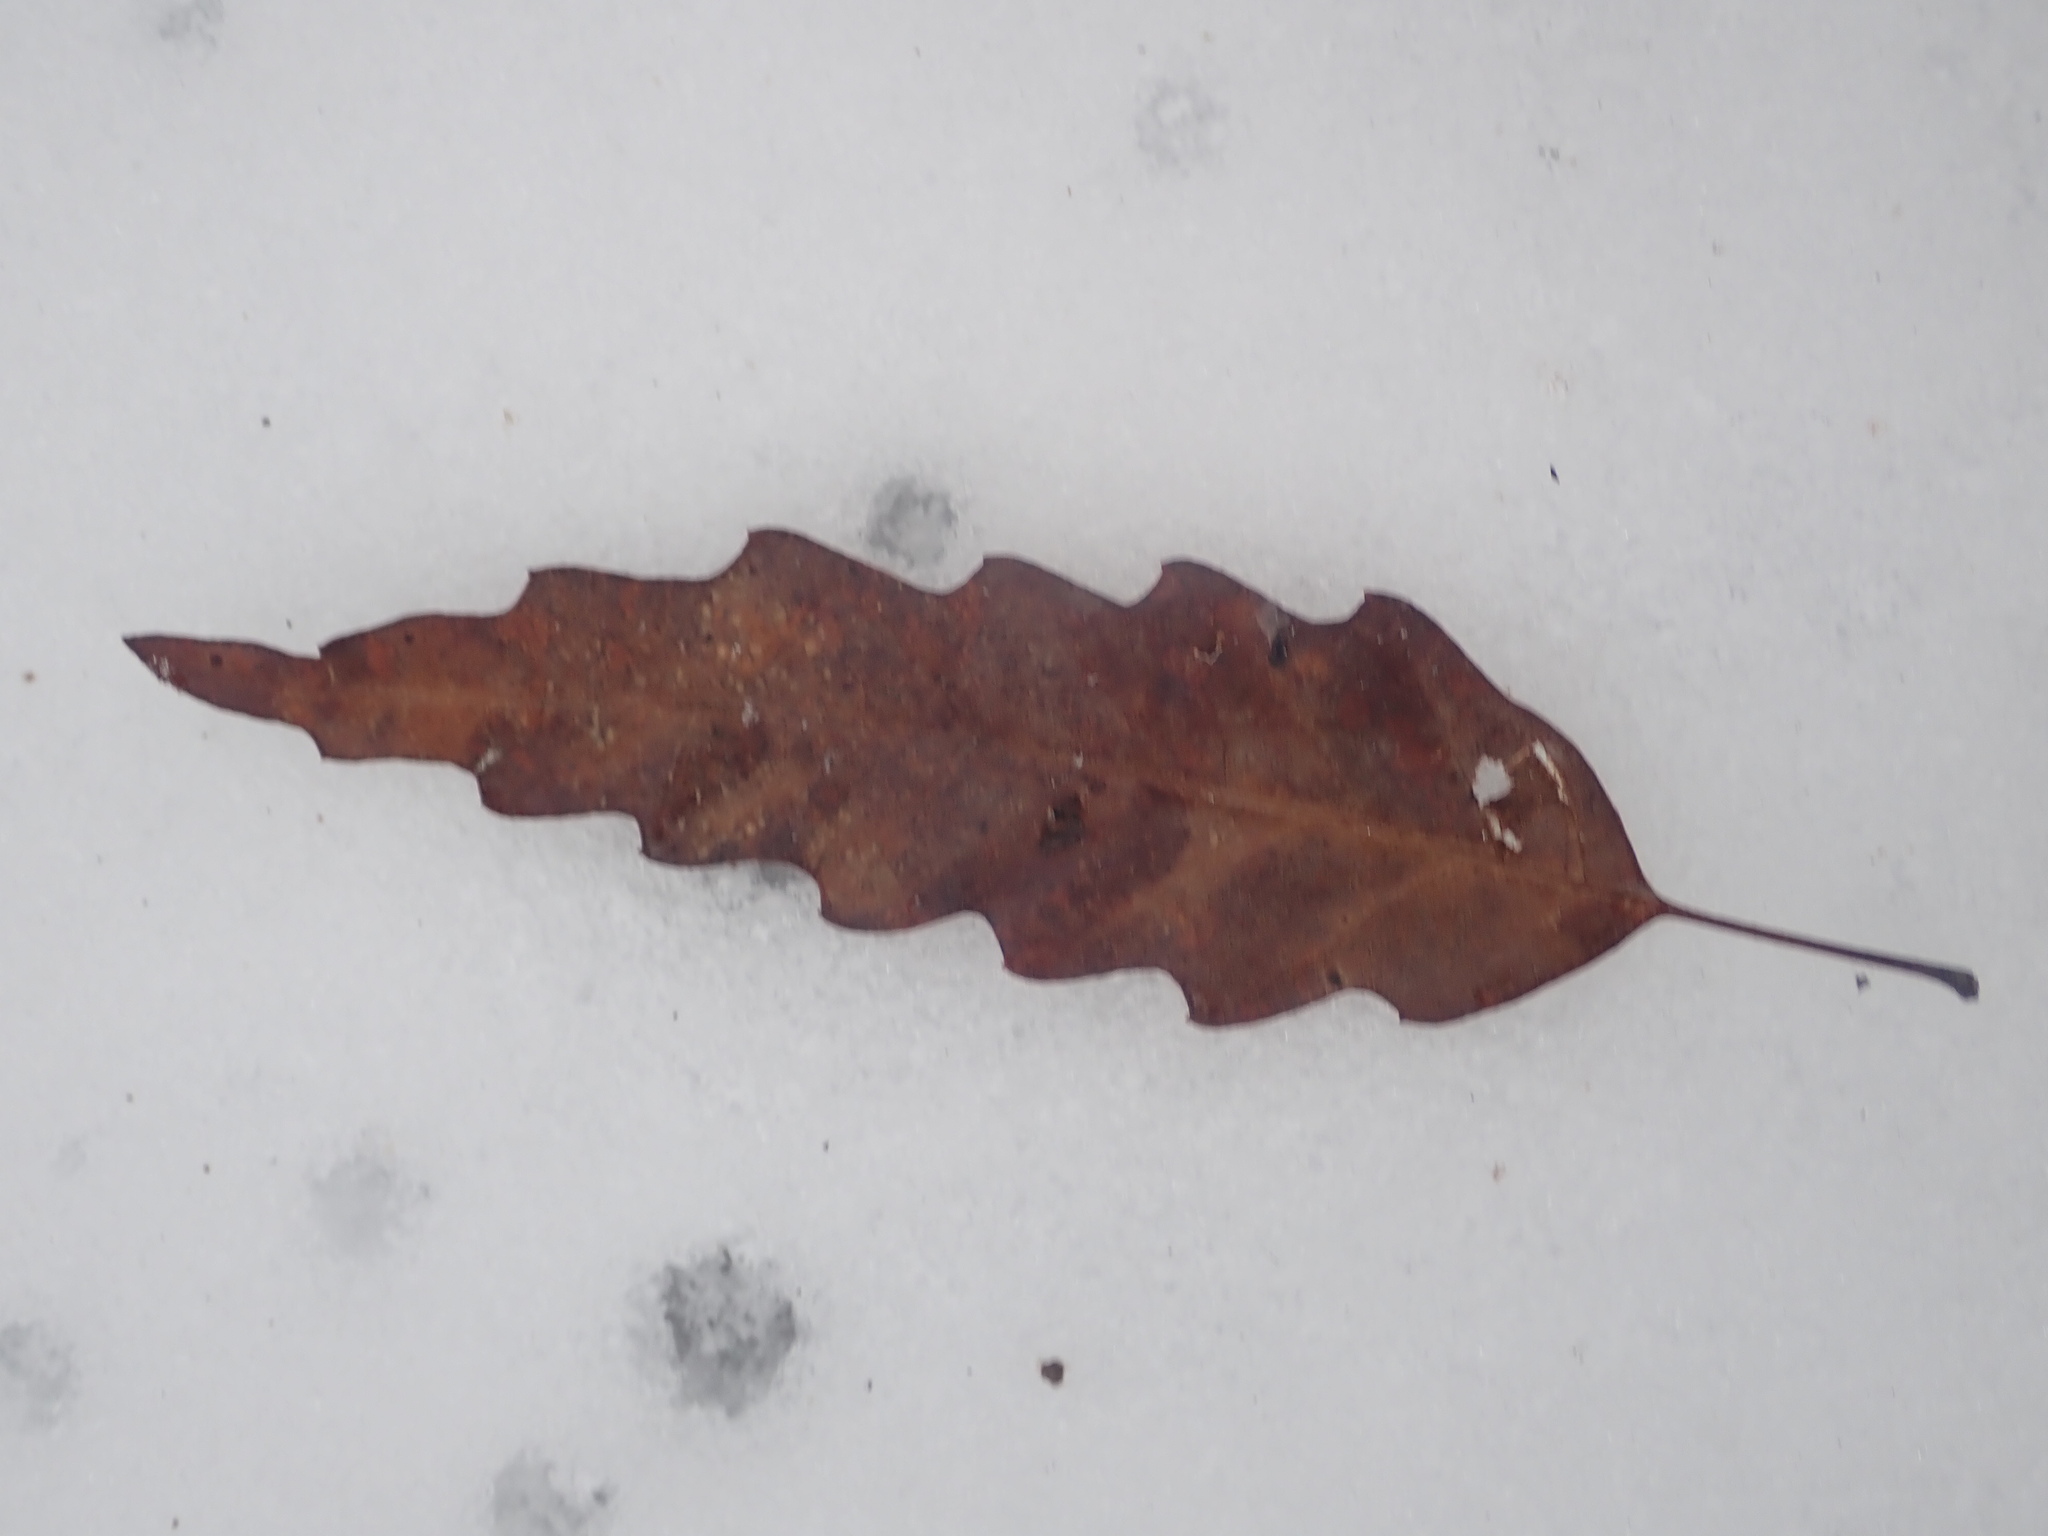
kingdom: Plantae
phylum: Tracheophyta
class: Magnoliopsida
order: Fagales
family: Fagaceae
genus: Quercus
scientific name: Quercus muehlenbergii
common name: Chinkapin oak
